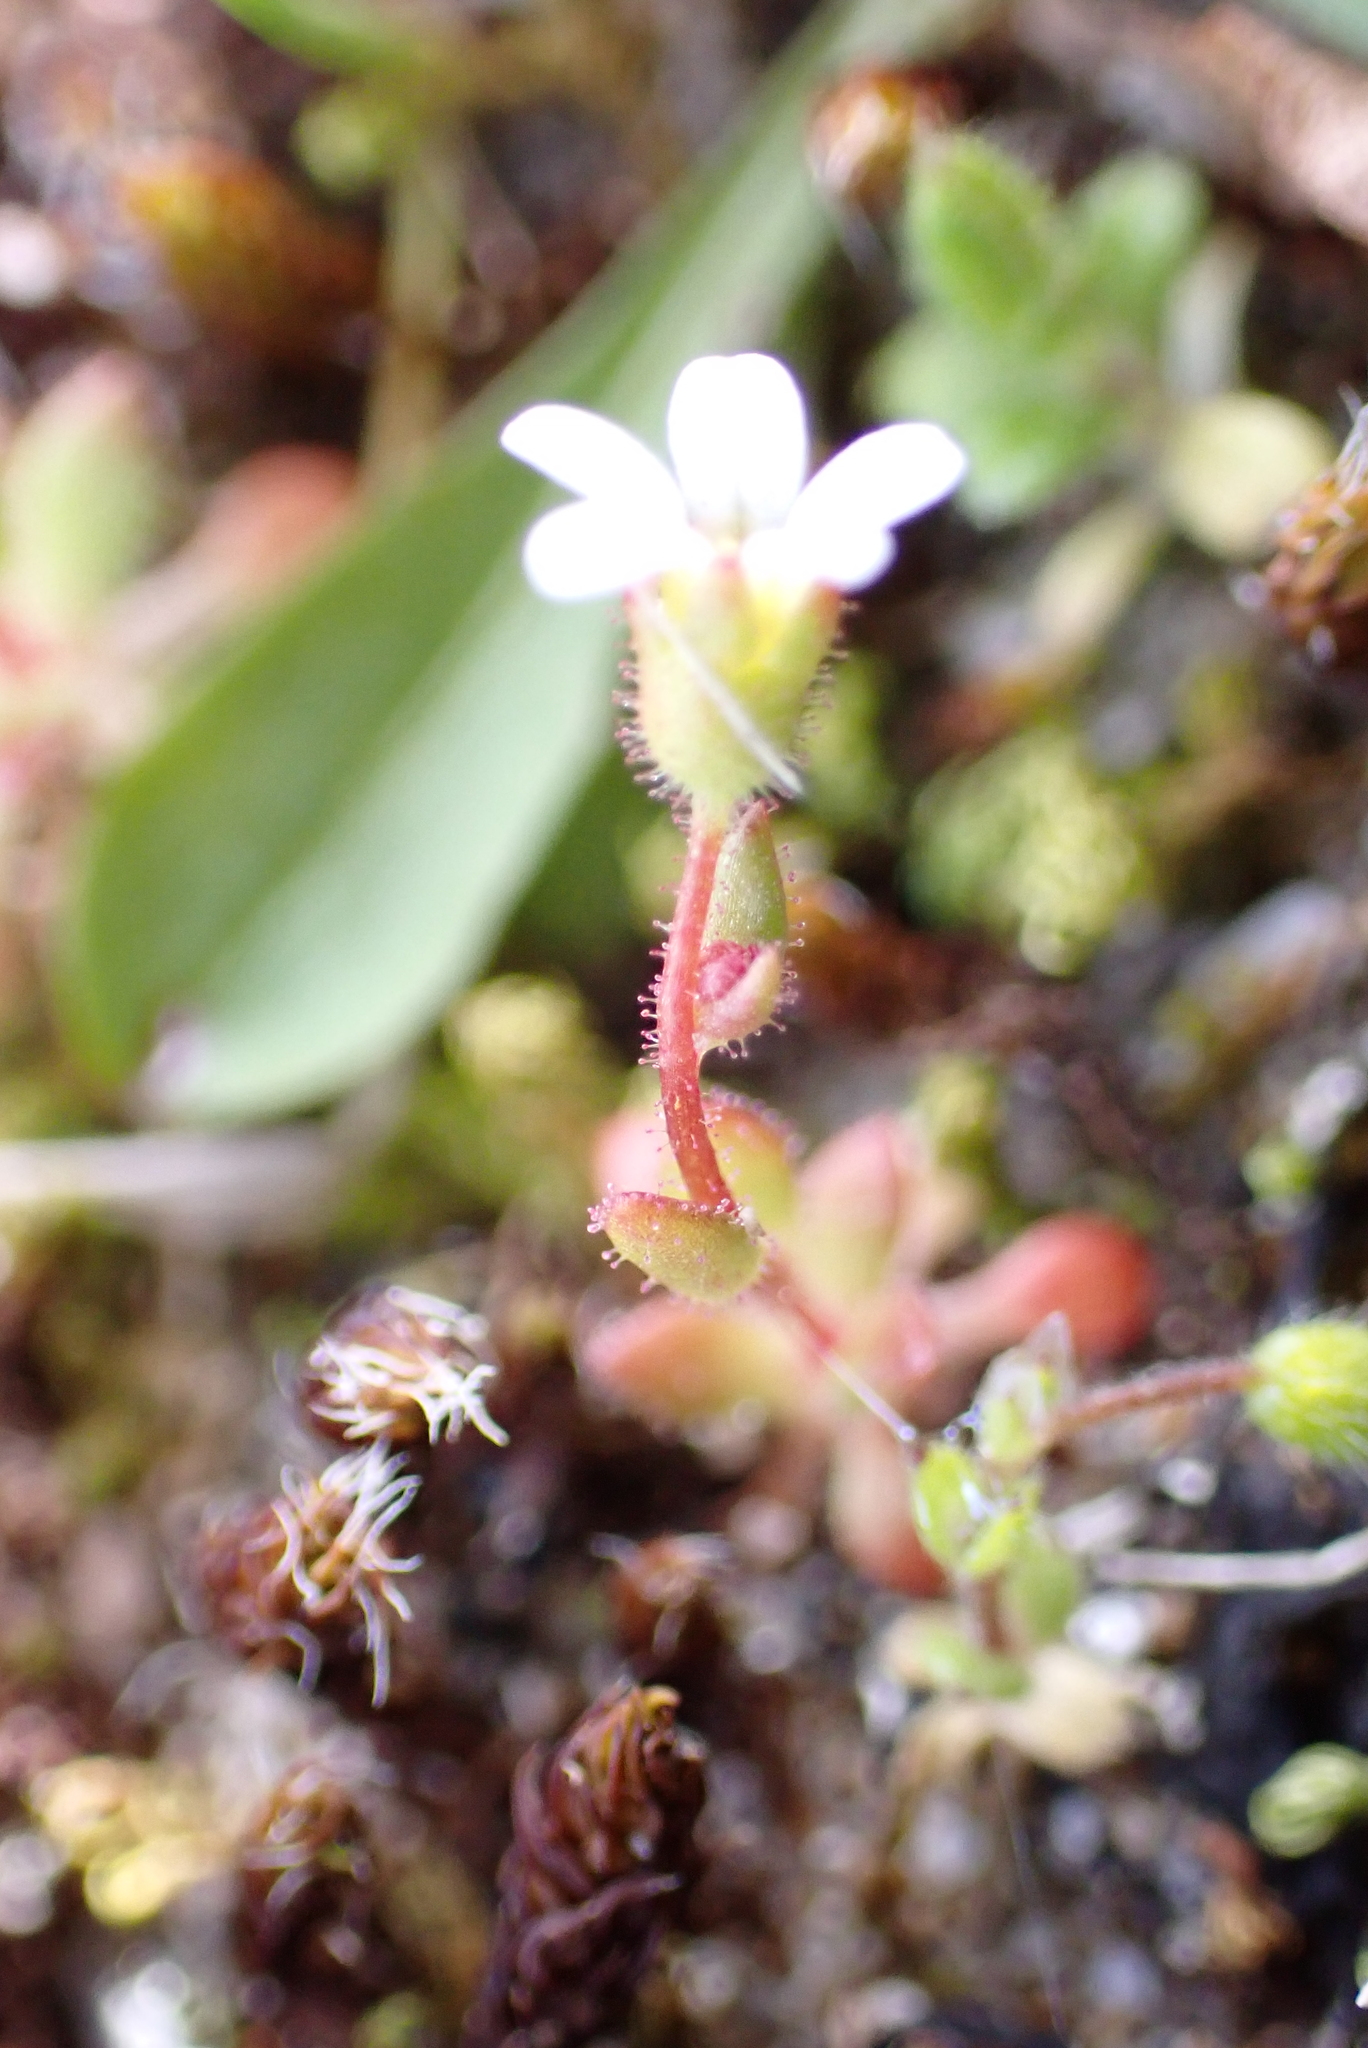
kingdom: Plantae
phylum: Tracheophyta
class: Magnoliopsida
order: Saxifragales
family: Saxifragaceae
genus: Saxifraga
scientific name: Saxifraga tridactylites
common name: Rue-leaved saxifrage
